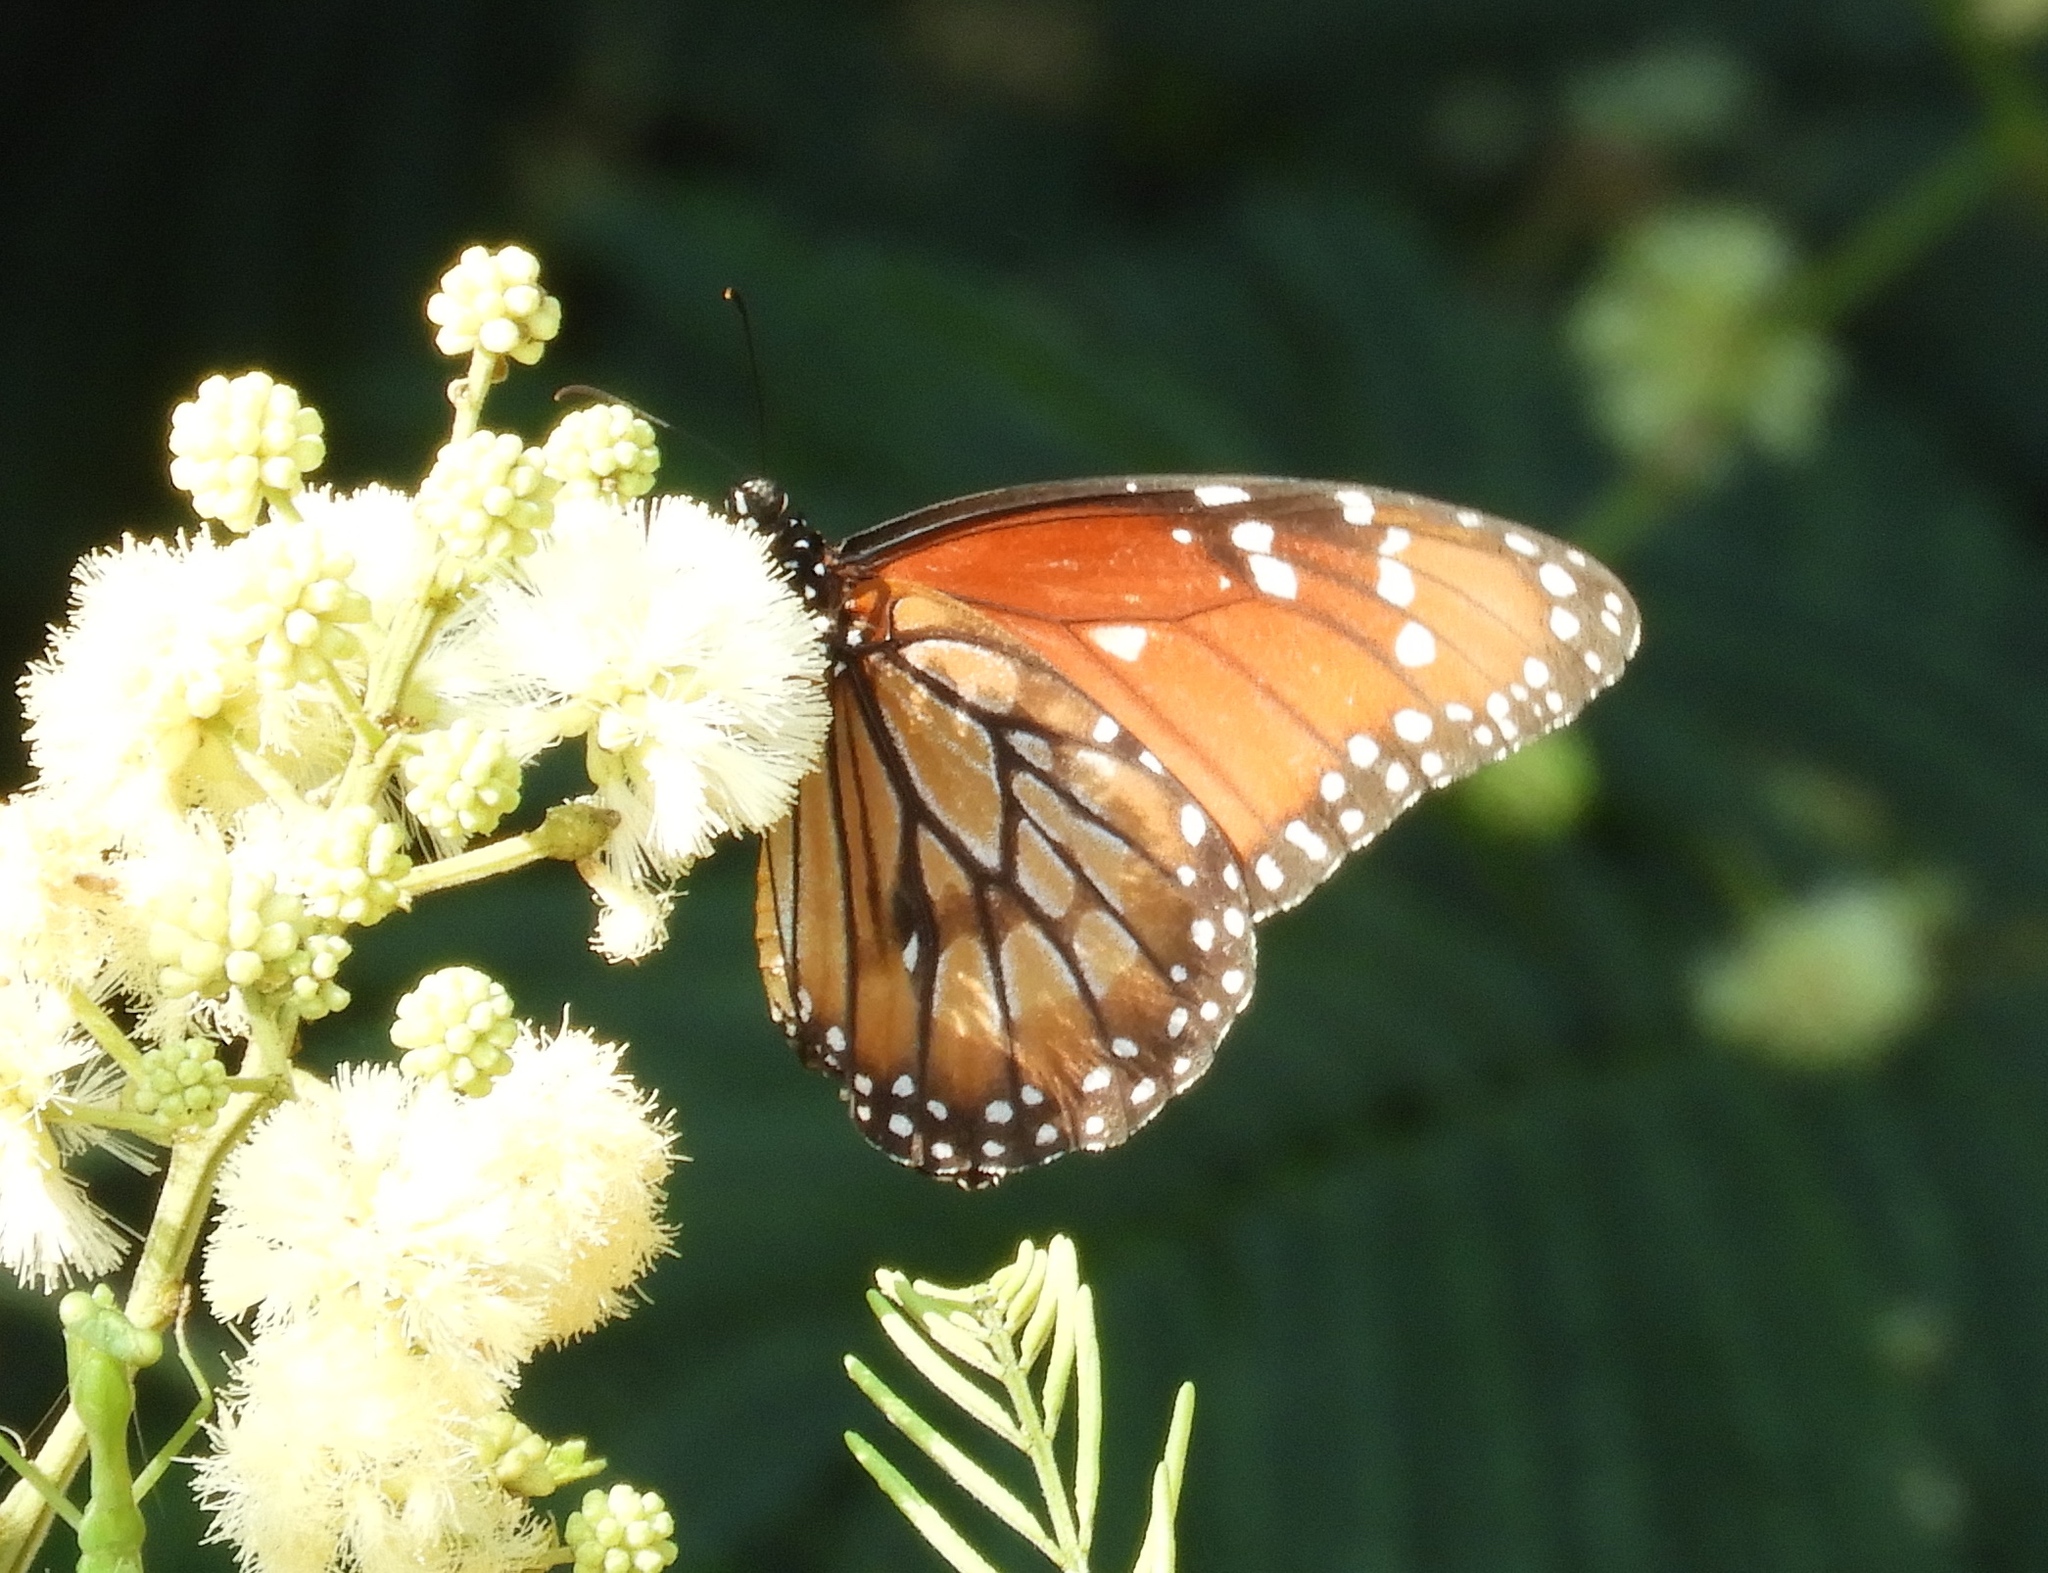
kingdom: Animalia
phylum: Arthropoda
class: Insecta
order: Lepidoptera
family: Nymphalidae
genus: Danaus
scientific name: Danaus eresimus
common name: Soldier
